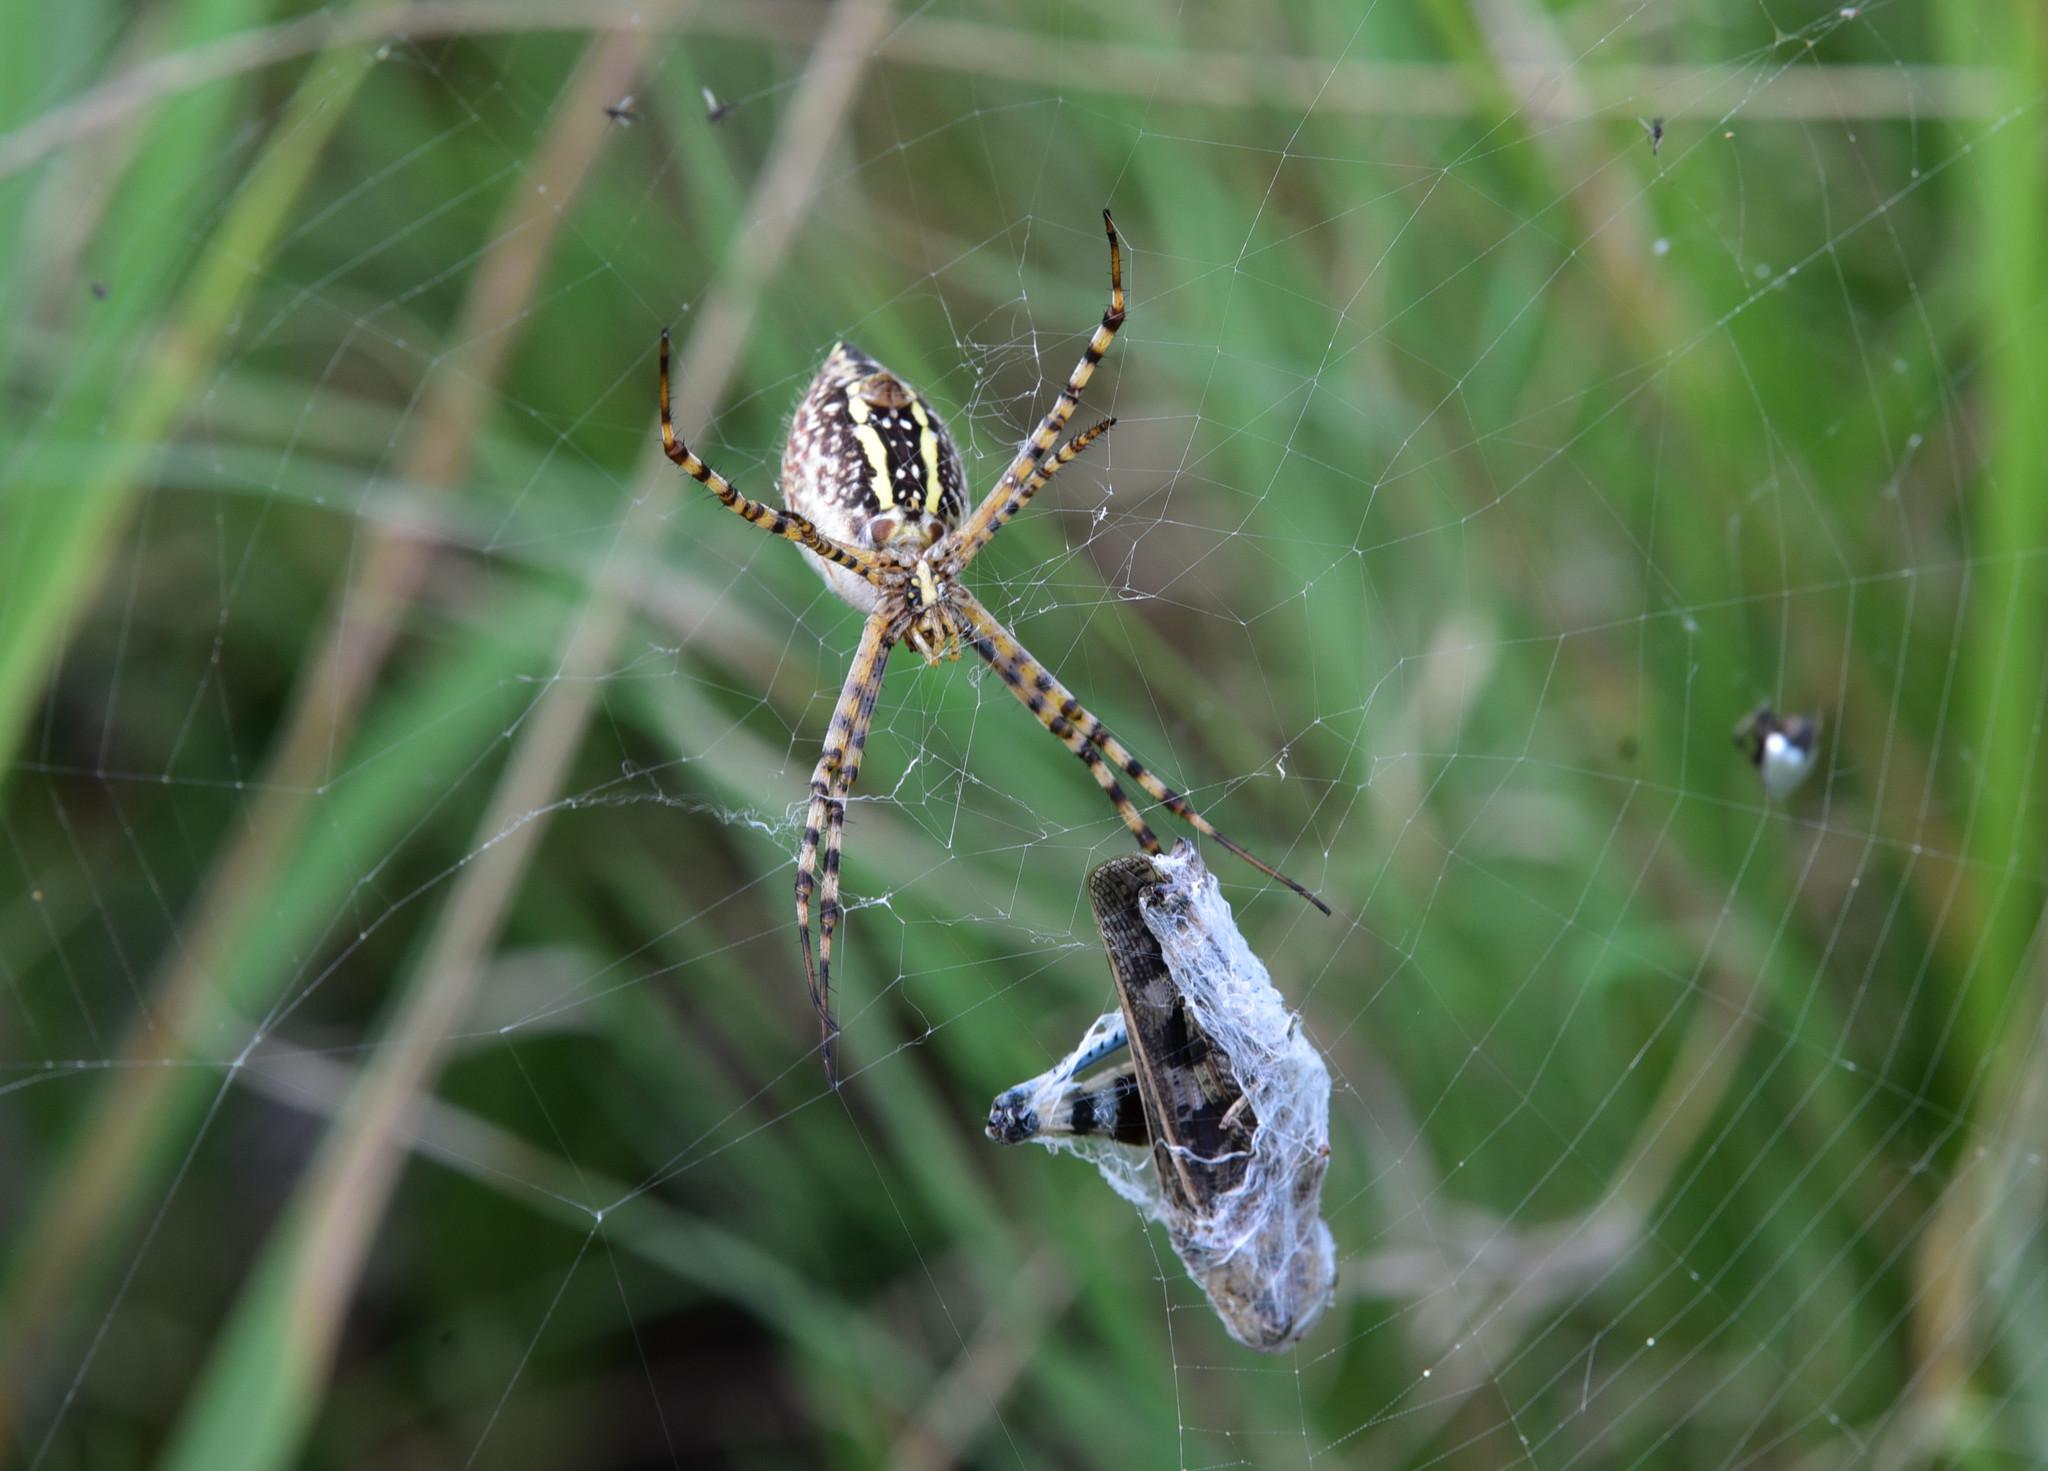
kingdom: Animalia
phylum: Arthropoda
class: Arachnida
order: Araneae
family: Araneidae
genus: Argiope
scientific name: Argiope trifasciata
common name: Banded garden spider
